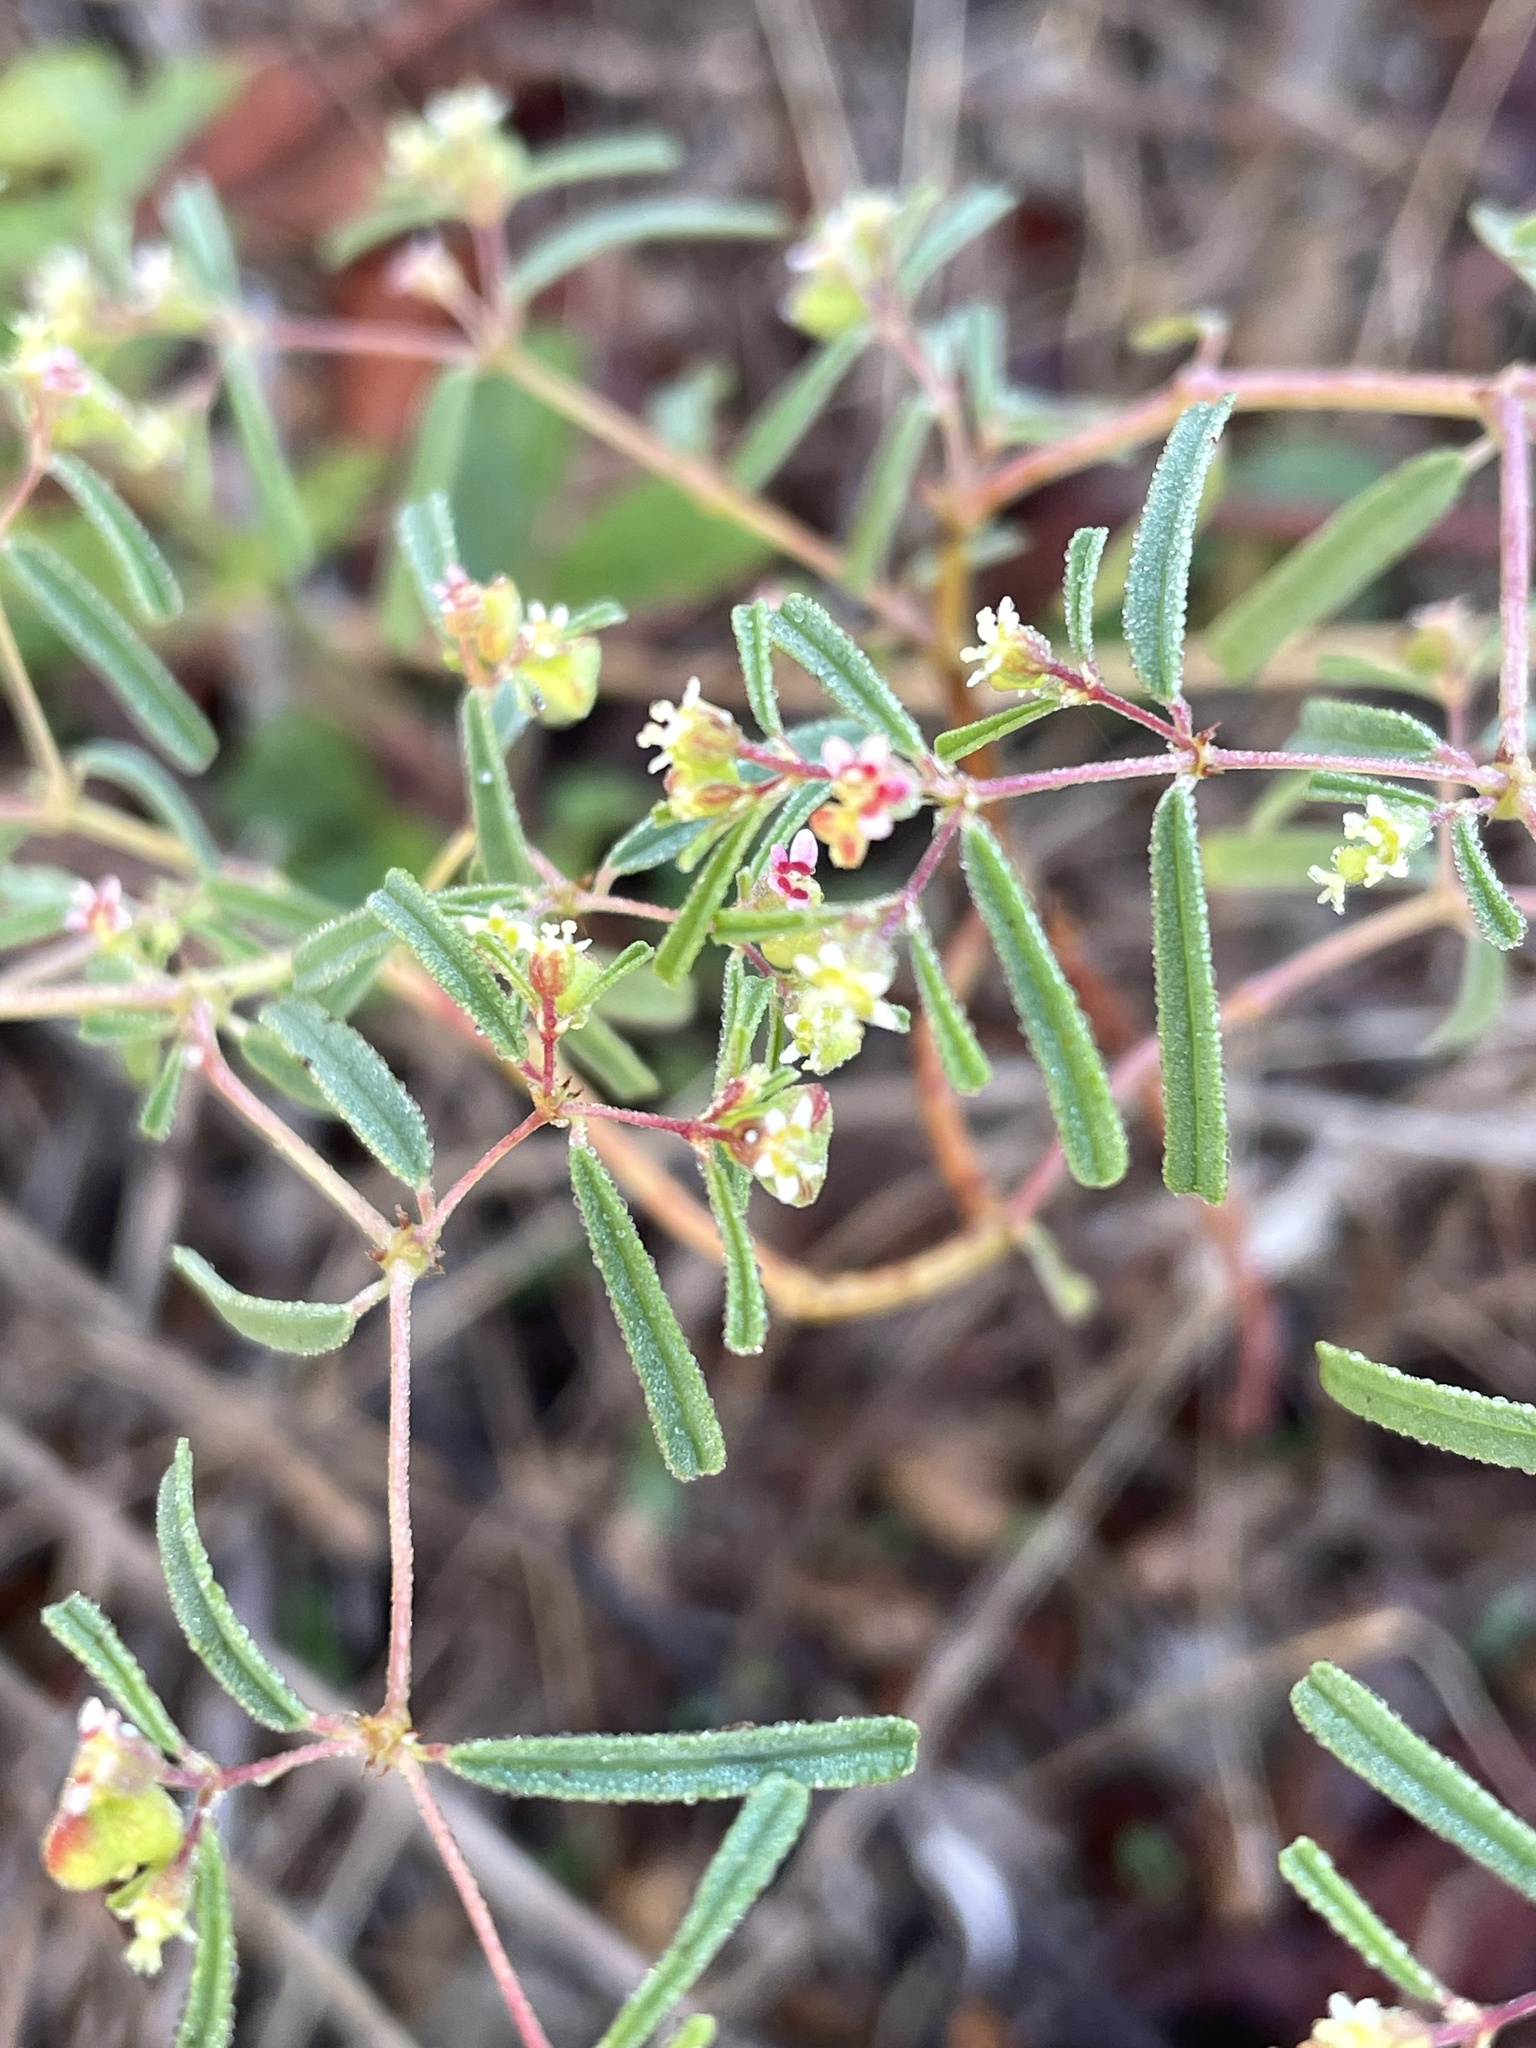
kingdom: Plantae
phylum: Tracheophyta
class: Magnoliopsida
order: Malpighiales
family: Euphorbiaceae
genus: Euphorbia
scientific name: Euphorbia missurica
